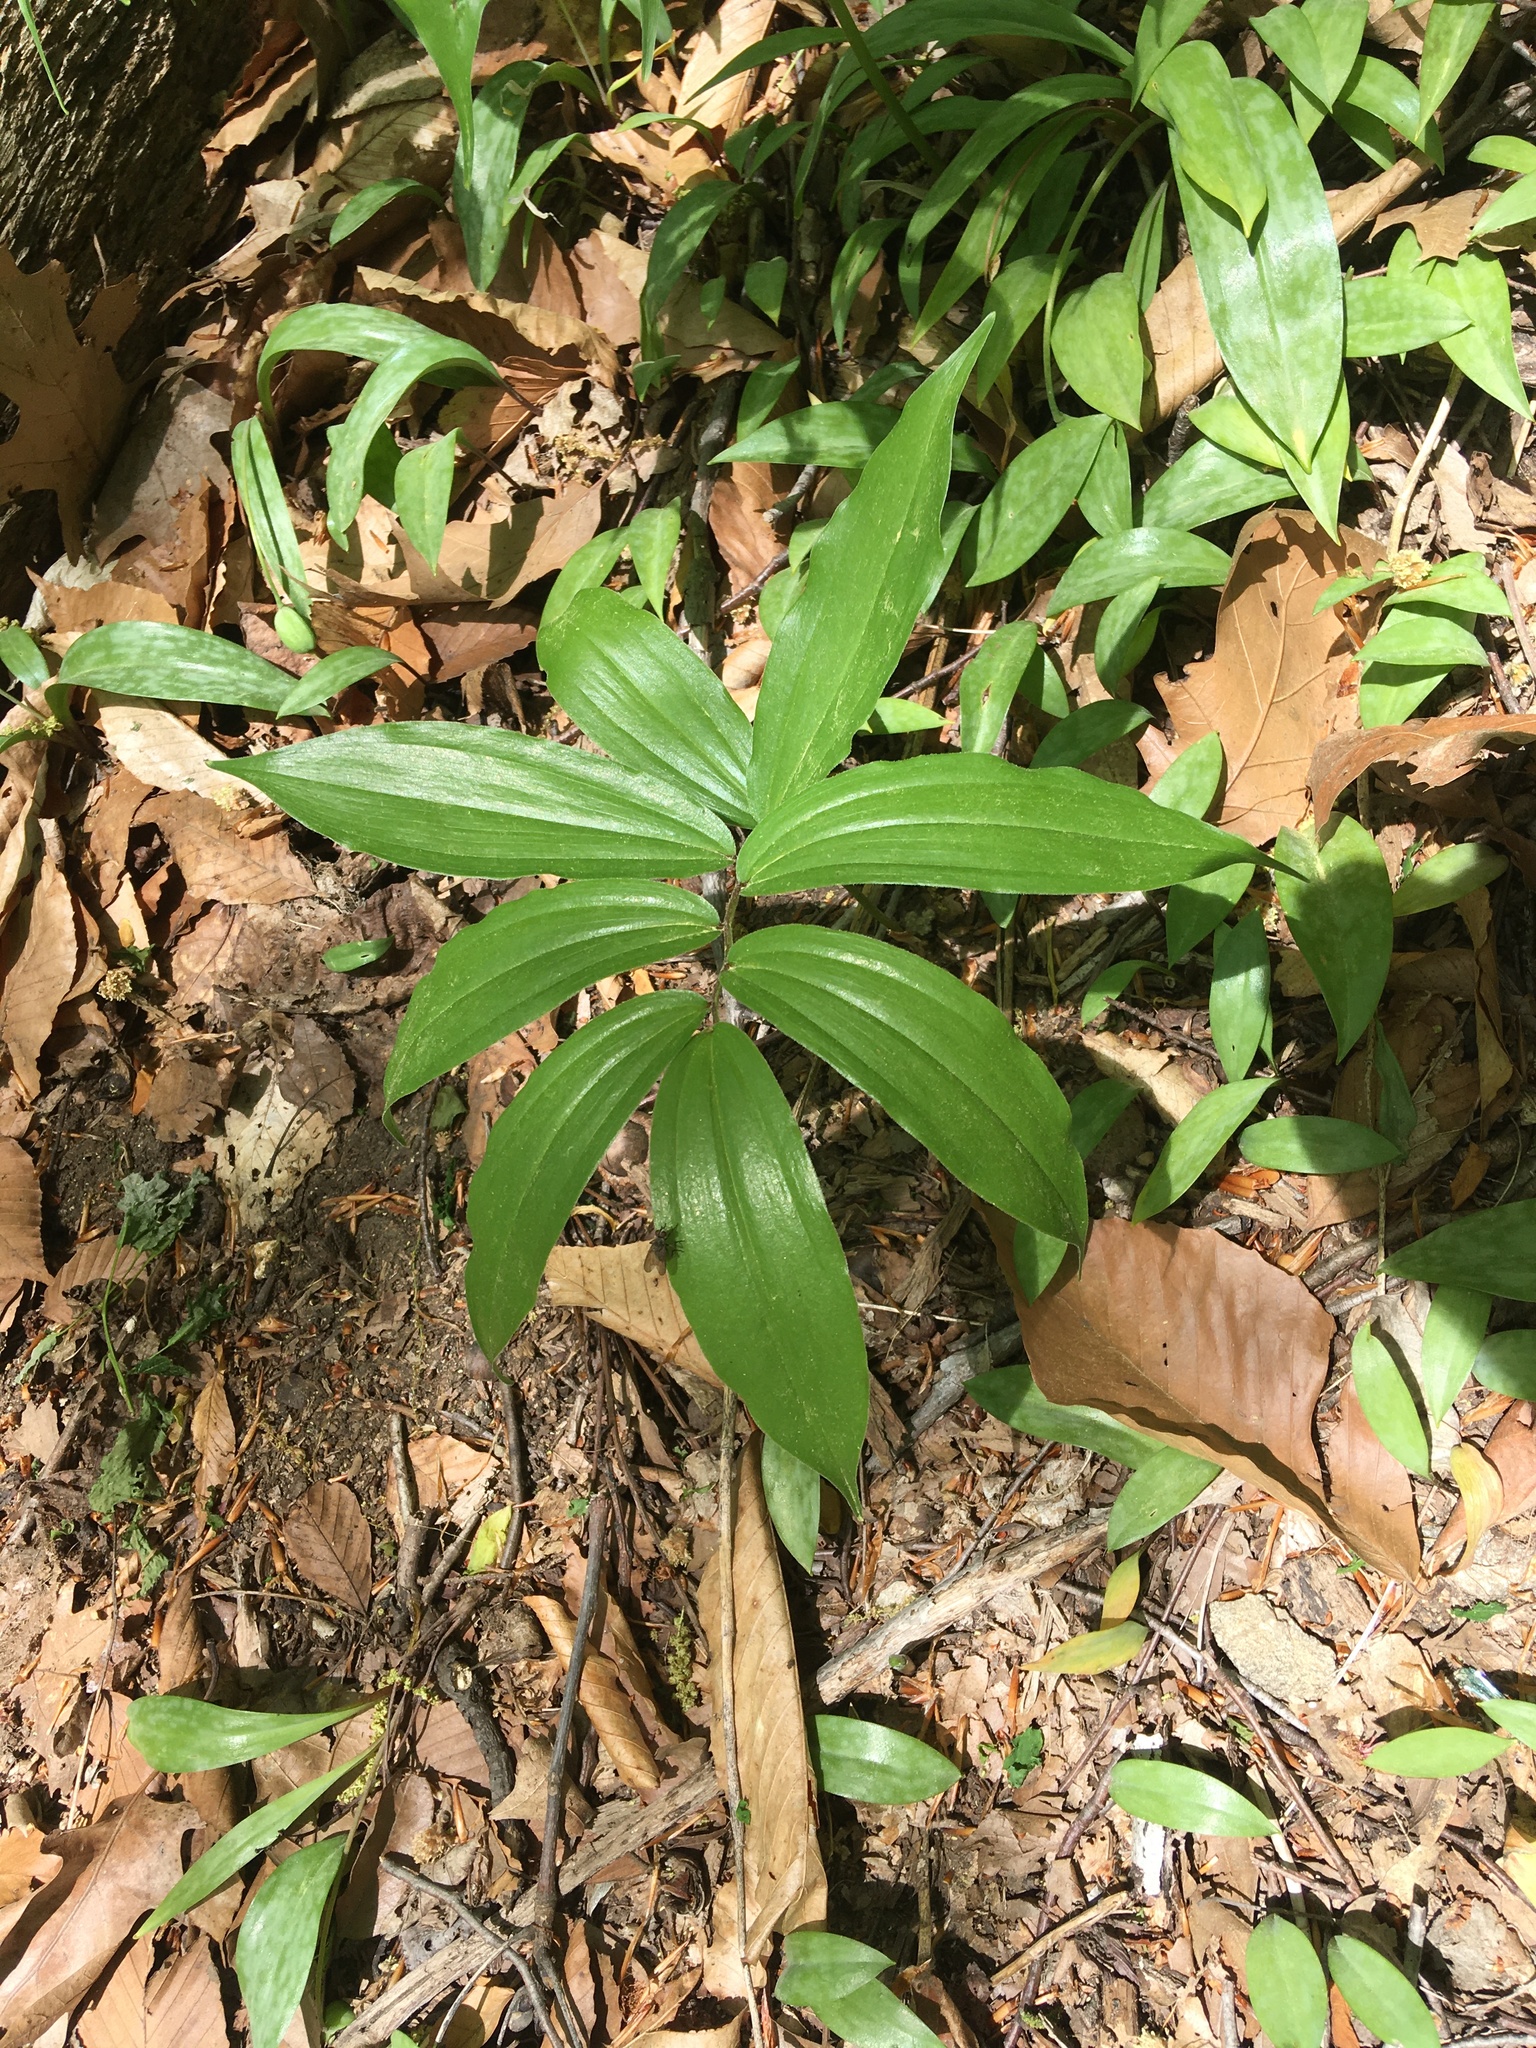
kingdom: Plantae
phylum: Tracheophyta
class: Liliopsida
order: Asparagales
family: Asparagaceae
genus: Maianthemum
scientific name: Maianthemum racemosum
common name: False spikenard
